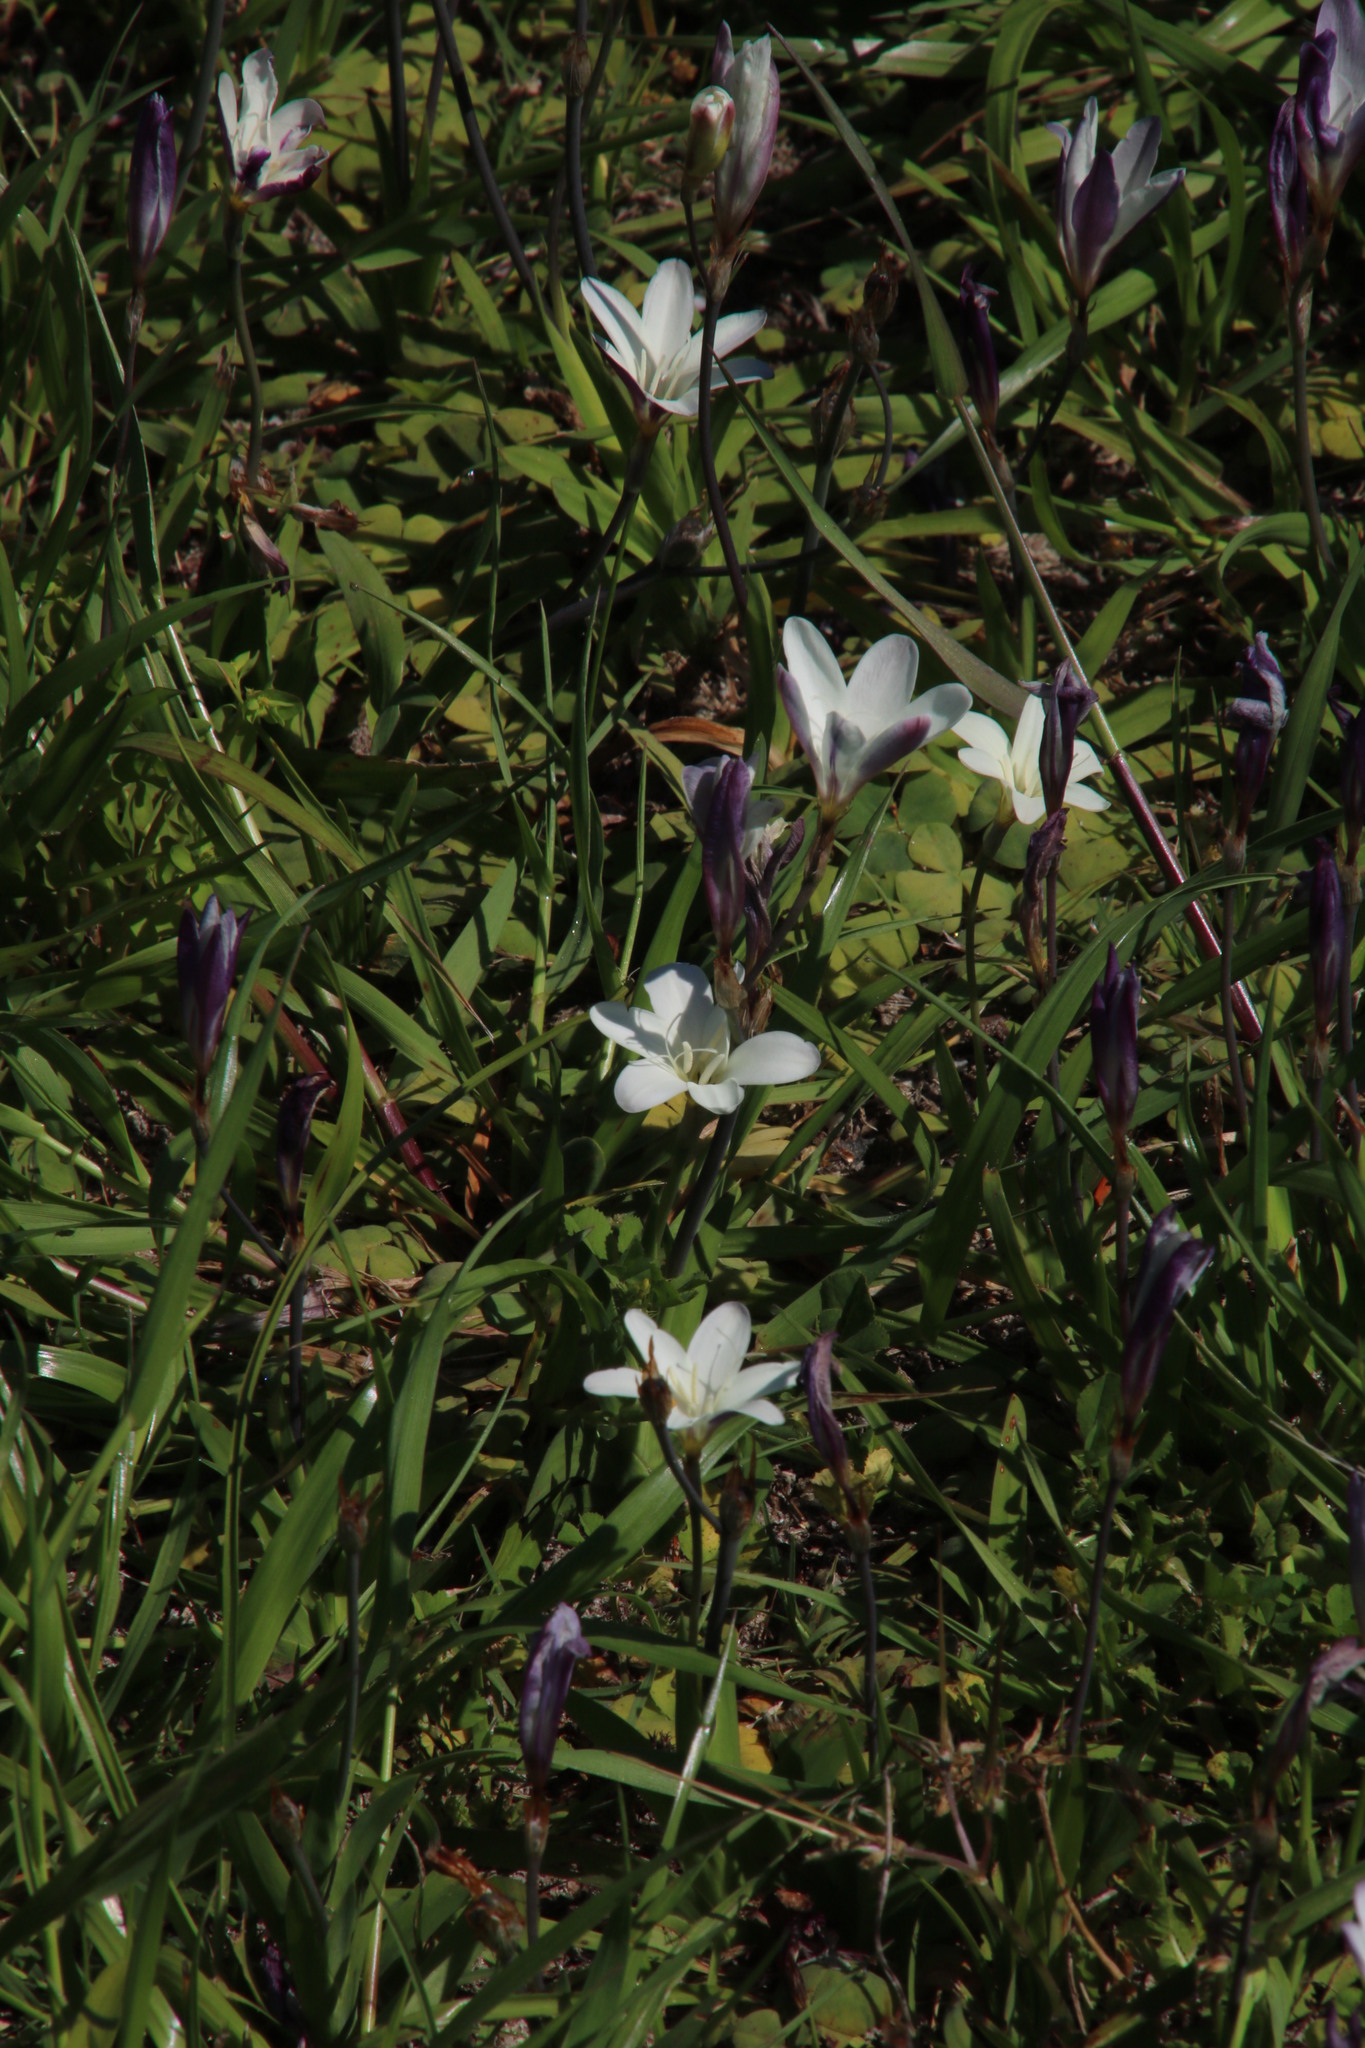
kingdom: Plantae
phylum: Tracheophyta
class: Liliopsida
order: Asparagales
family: Iridaceae
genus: Sparaxis
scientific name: Sparaxis bulbifera
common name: Harlequin-flower
